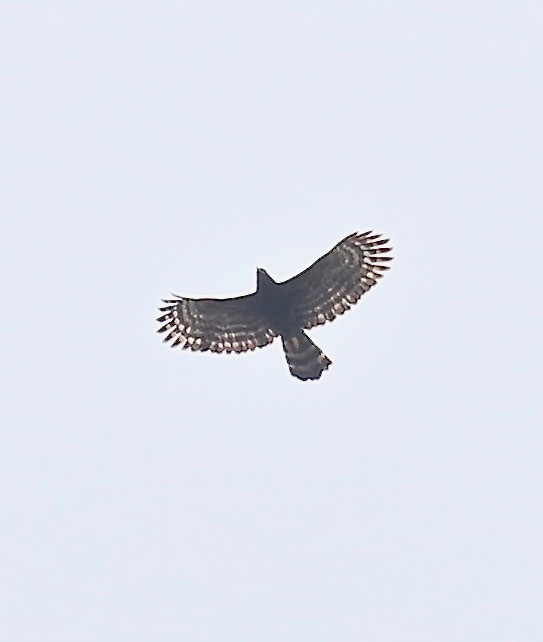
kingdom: Animalia
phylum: Chordata
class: Aves
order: Accipitriformes
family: Accipitridae
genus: Spizaetus
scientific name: Spizaetus tyrannus
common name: Black hawk-eagle
